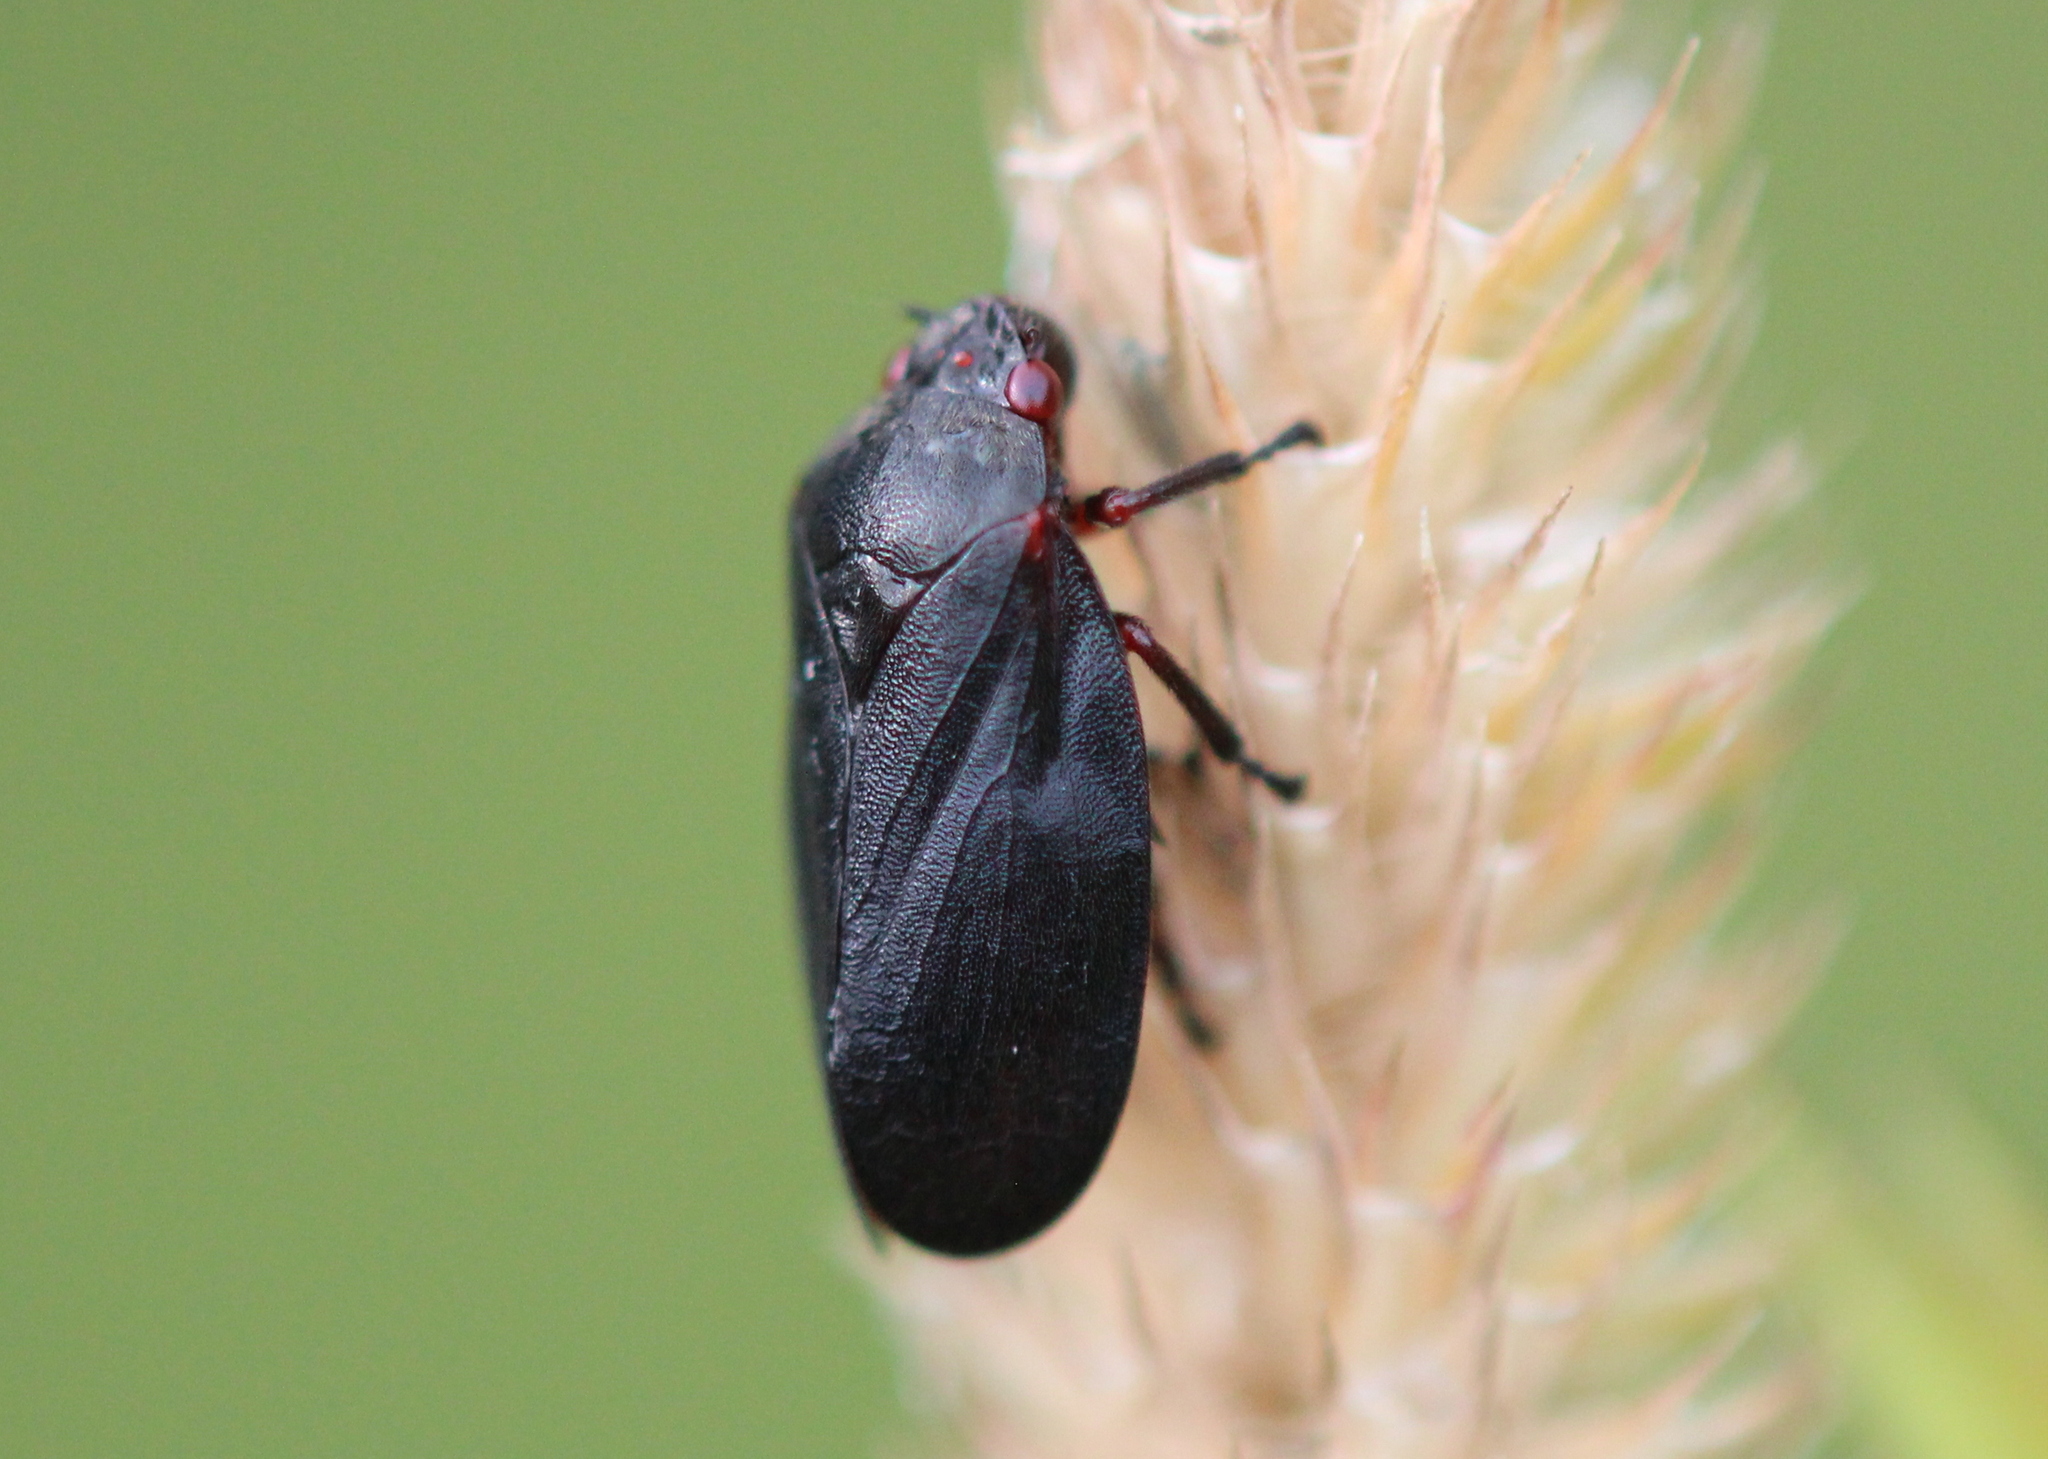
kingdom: Animalia
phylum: Arthropoda
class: Insecta
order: Hemiptera
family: Cercopidae
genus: Prosapia
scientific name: Prosapia ignipectus
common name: Black spittlebug
